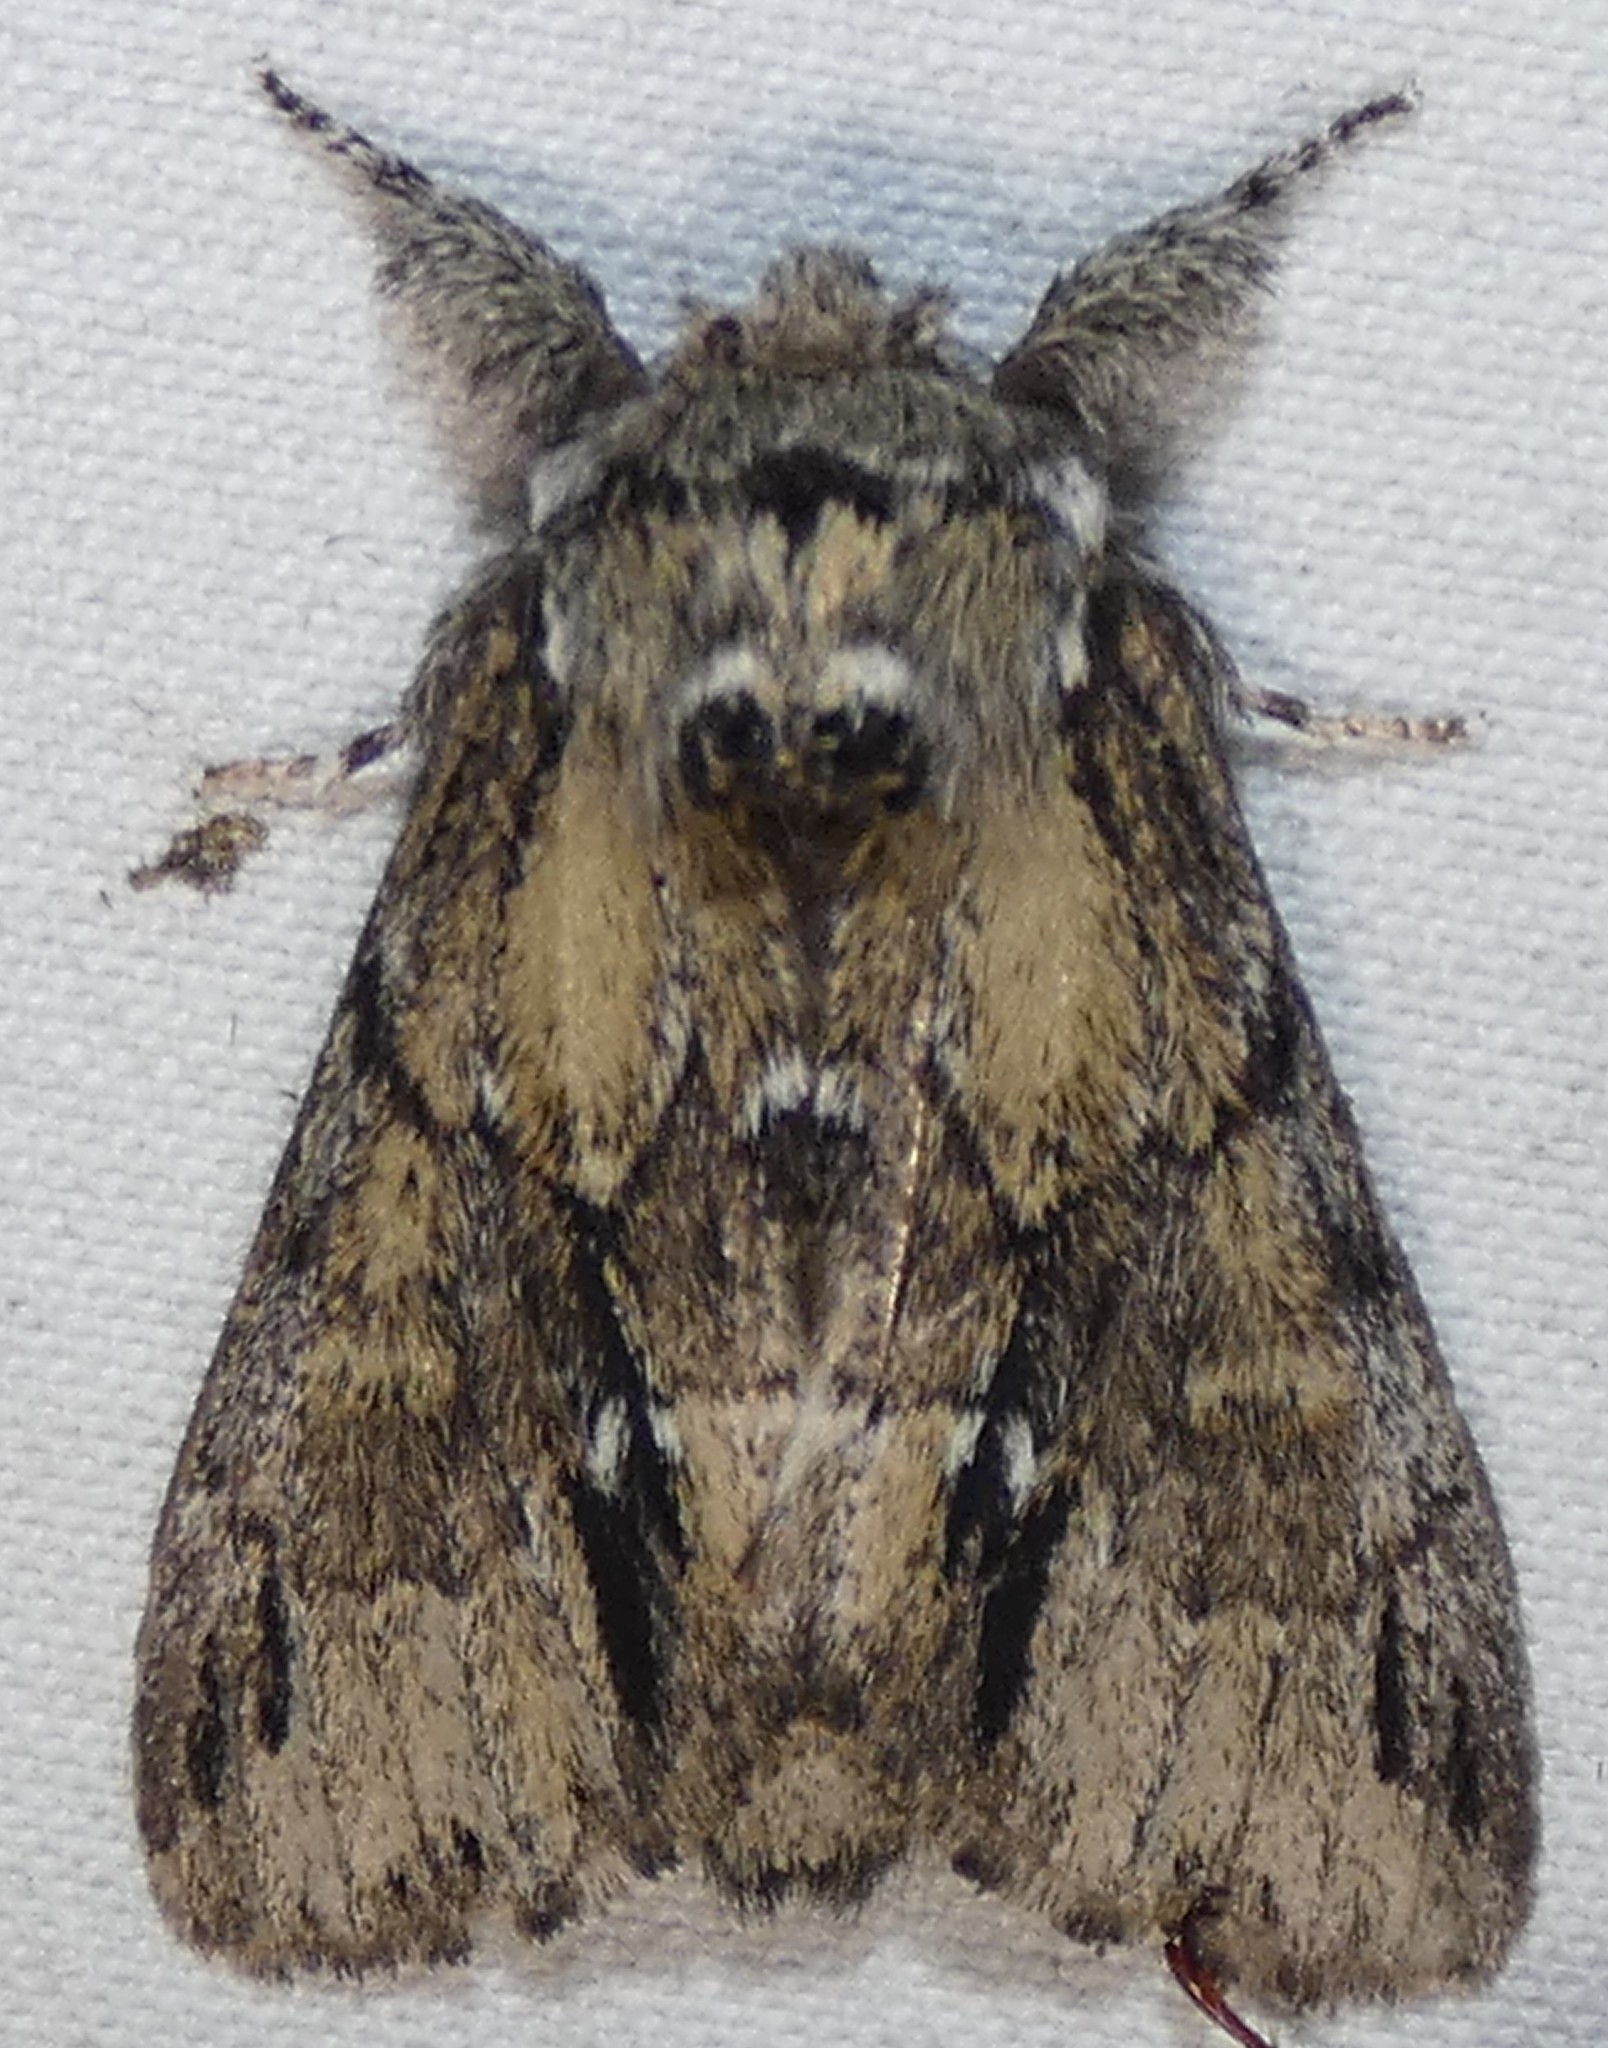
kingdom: Animalia
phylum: Arthropoda
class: Insecta
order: Lepidoptera
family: Notodontidae
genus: Paraeschra
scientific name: Paraeschra georgica
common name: Georgian prominent
